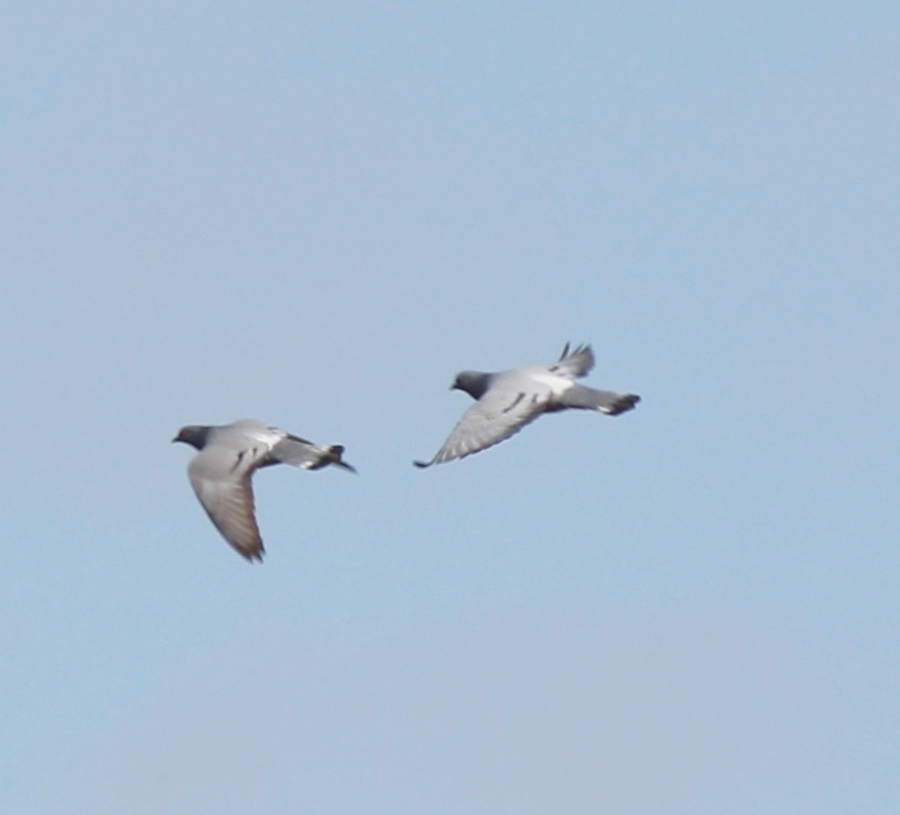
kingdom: Animalia
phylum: Chordata
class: Aves
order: Columbiformes
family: Columbidae
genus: Columba
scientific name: Columba rupestris
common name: Hill pigeon
